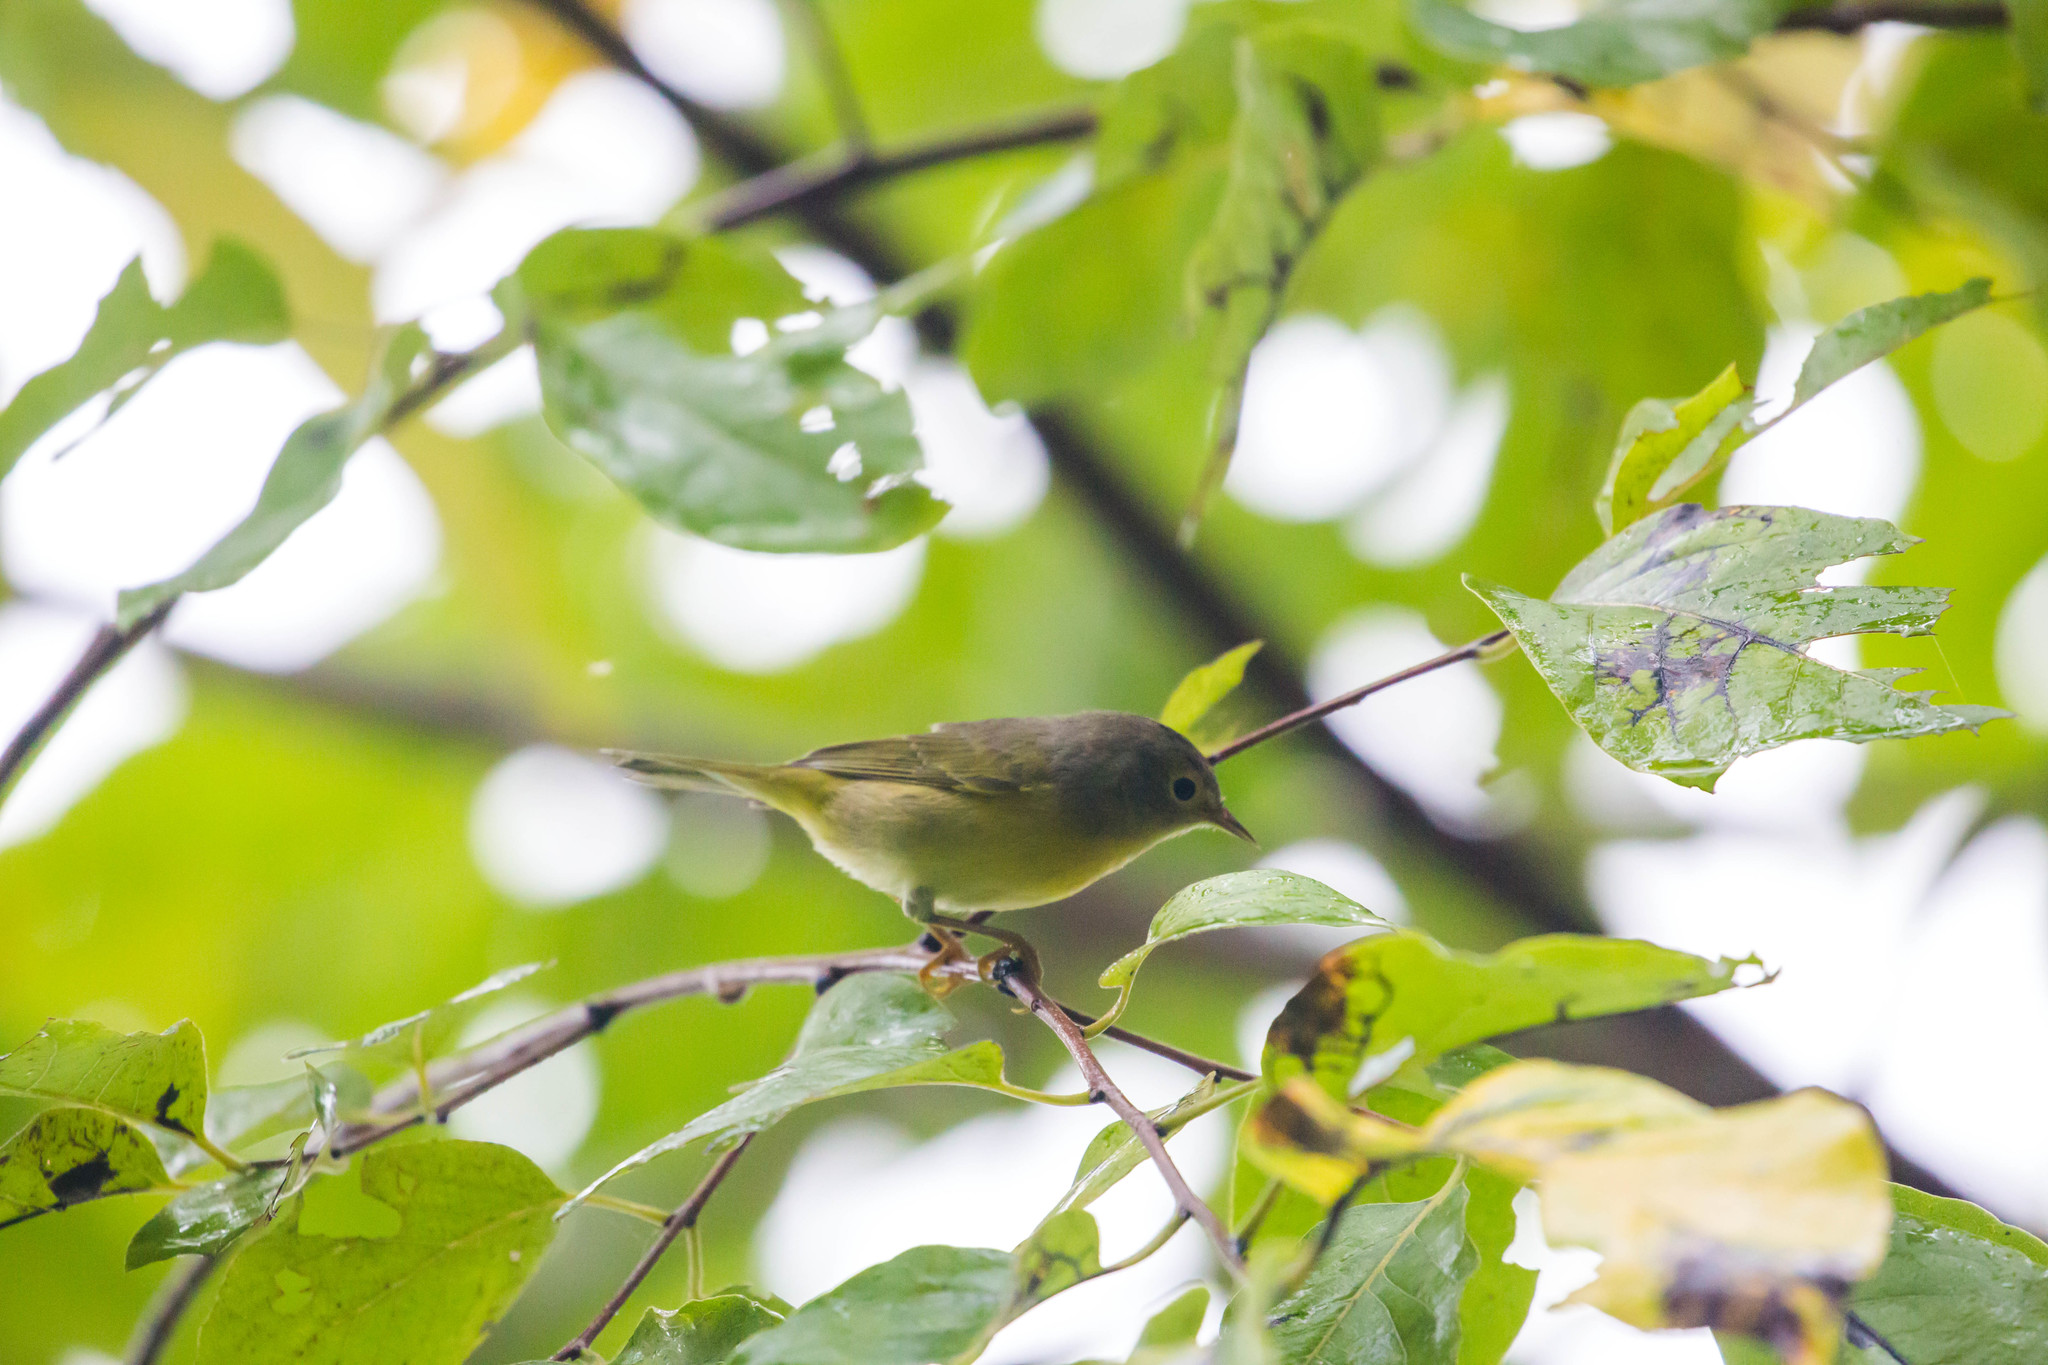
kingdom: Animalia
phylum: Chordata
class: Aves
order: Passeriformes
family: Parulidae
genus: Leiothlypis
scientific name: Leiothlypis ruficapilla
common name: Nashville warbler
